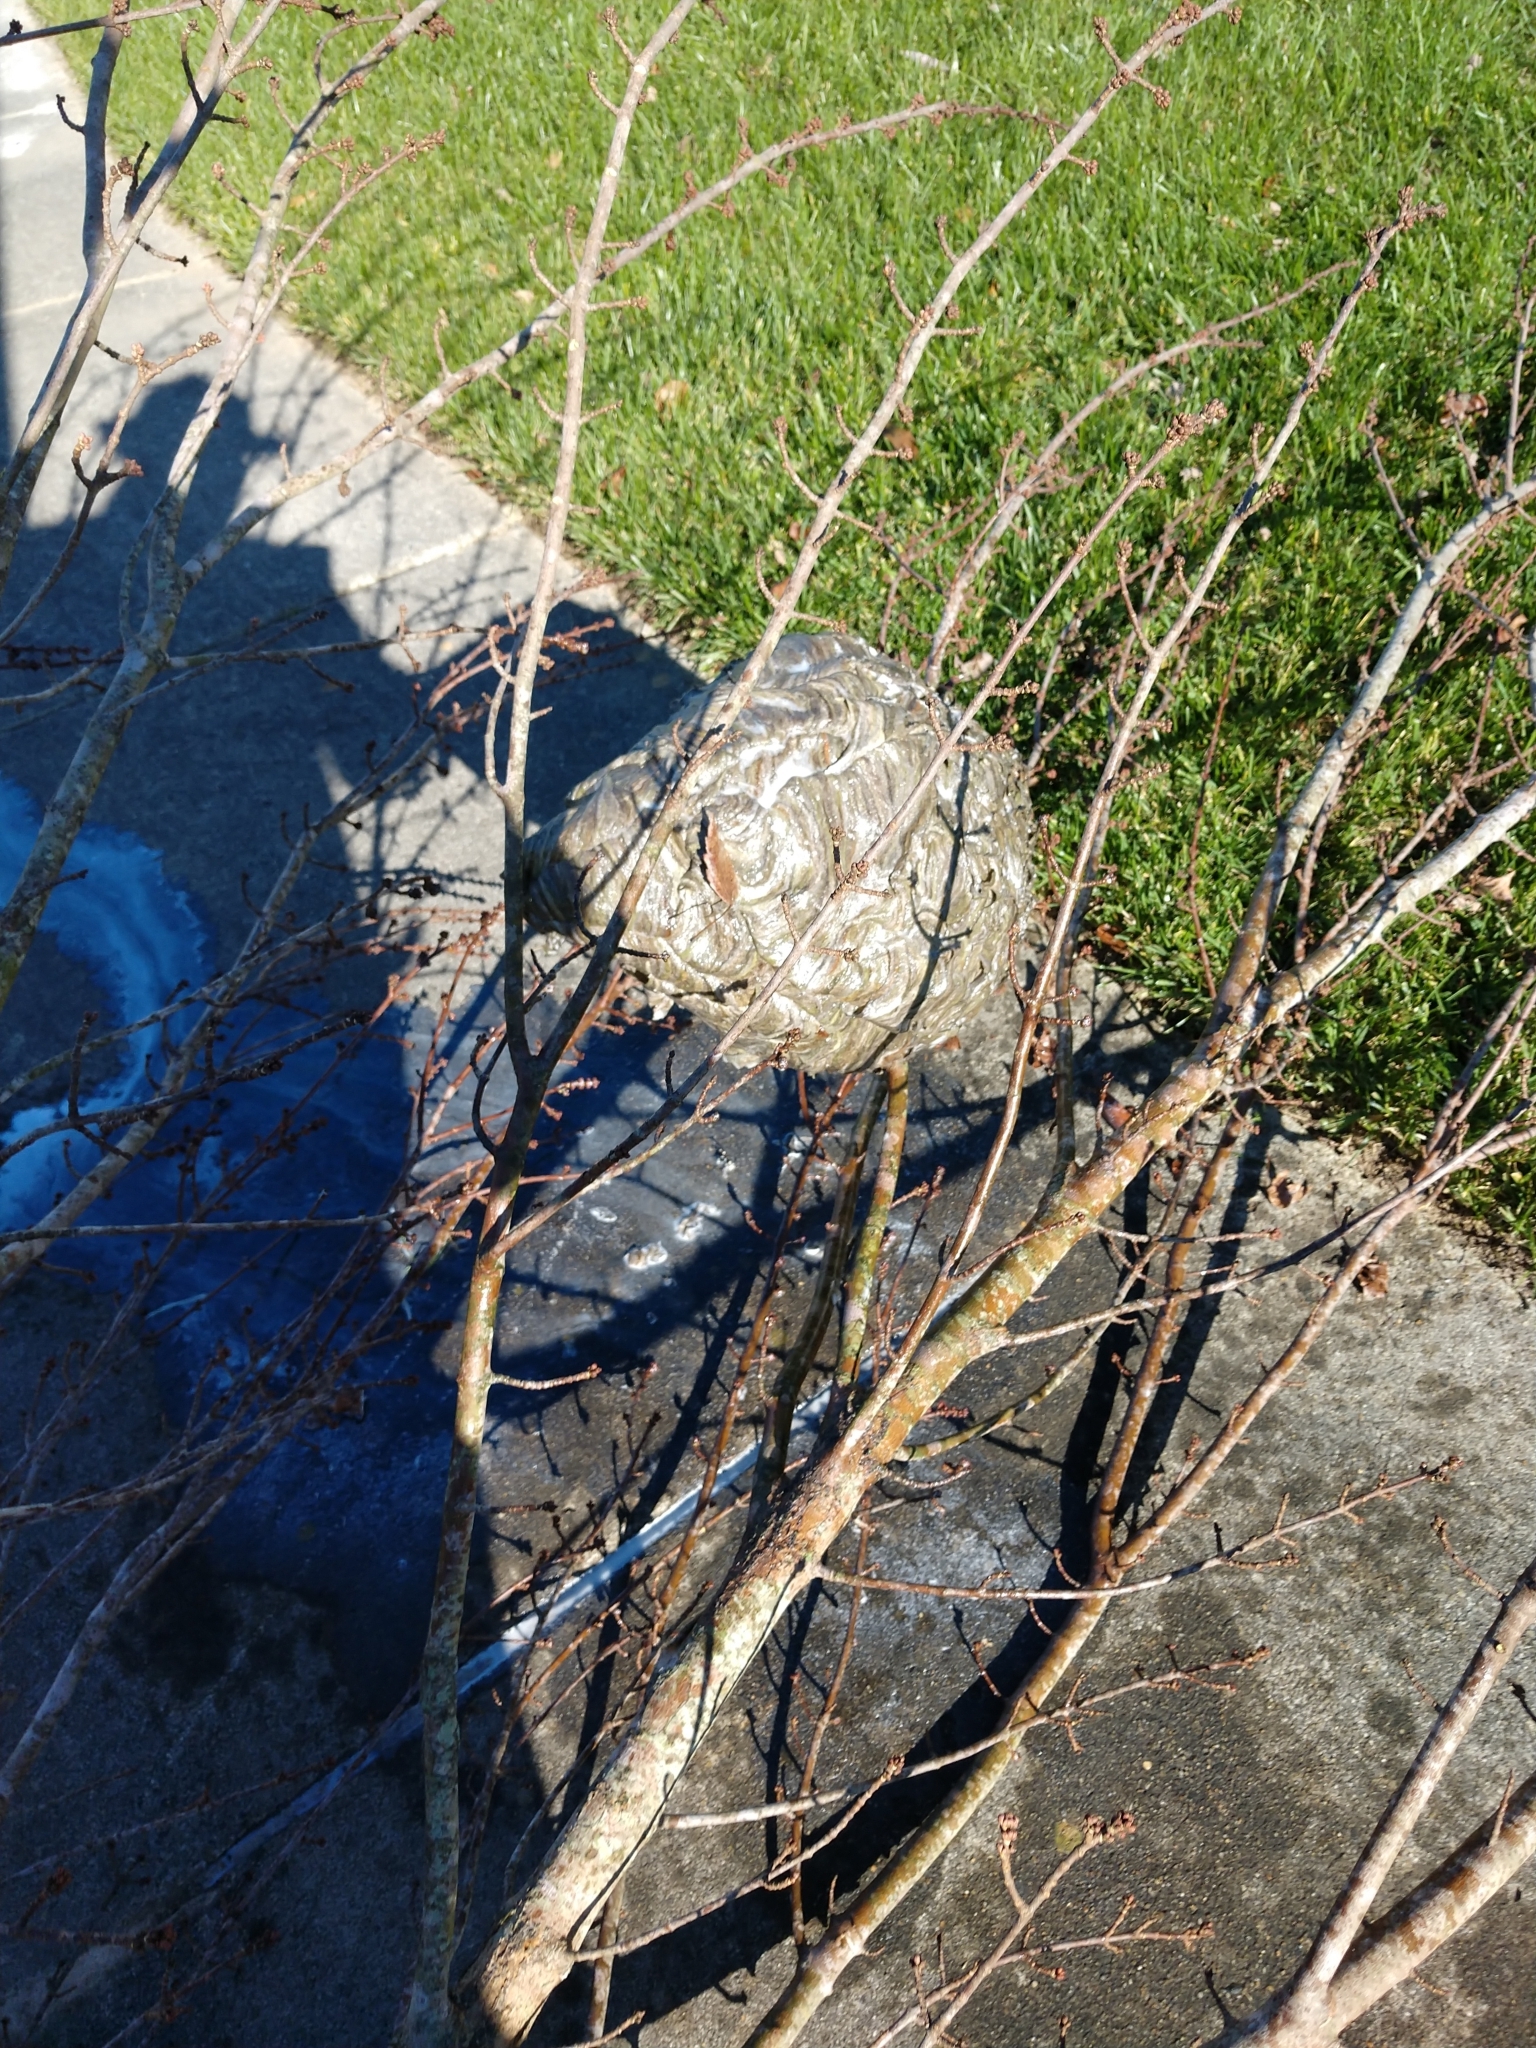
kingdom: Animalia
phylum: Arthropoda
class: Insecta
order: Hymenoptera
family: Vespidae
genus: Dolichovespula
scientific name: Dolichovespula maculata
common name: Bald-faced hornet
